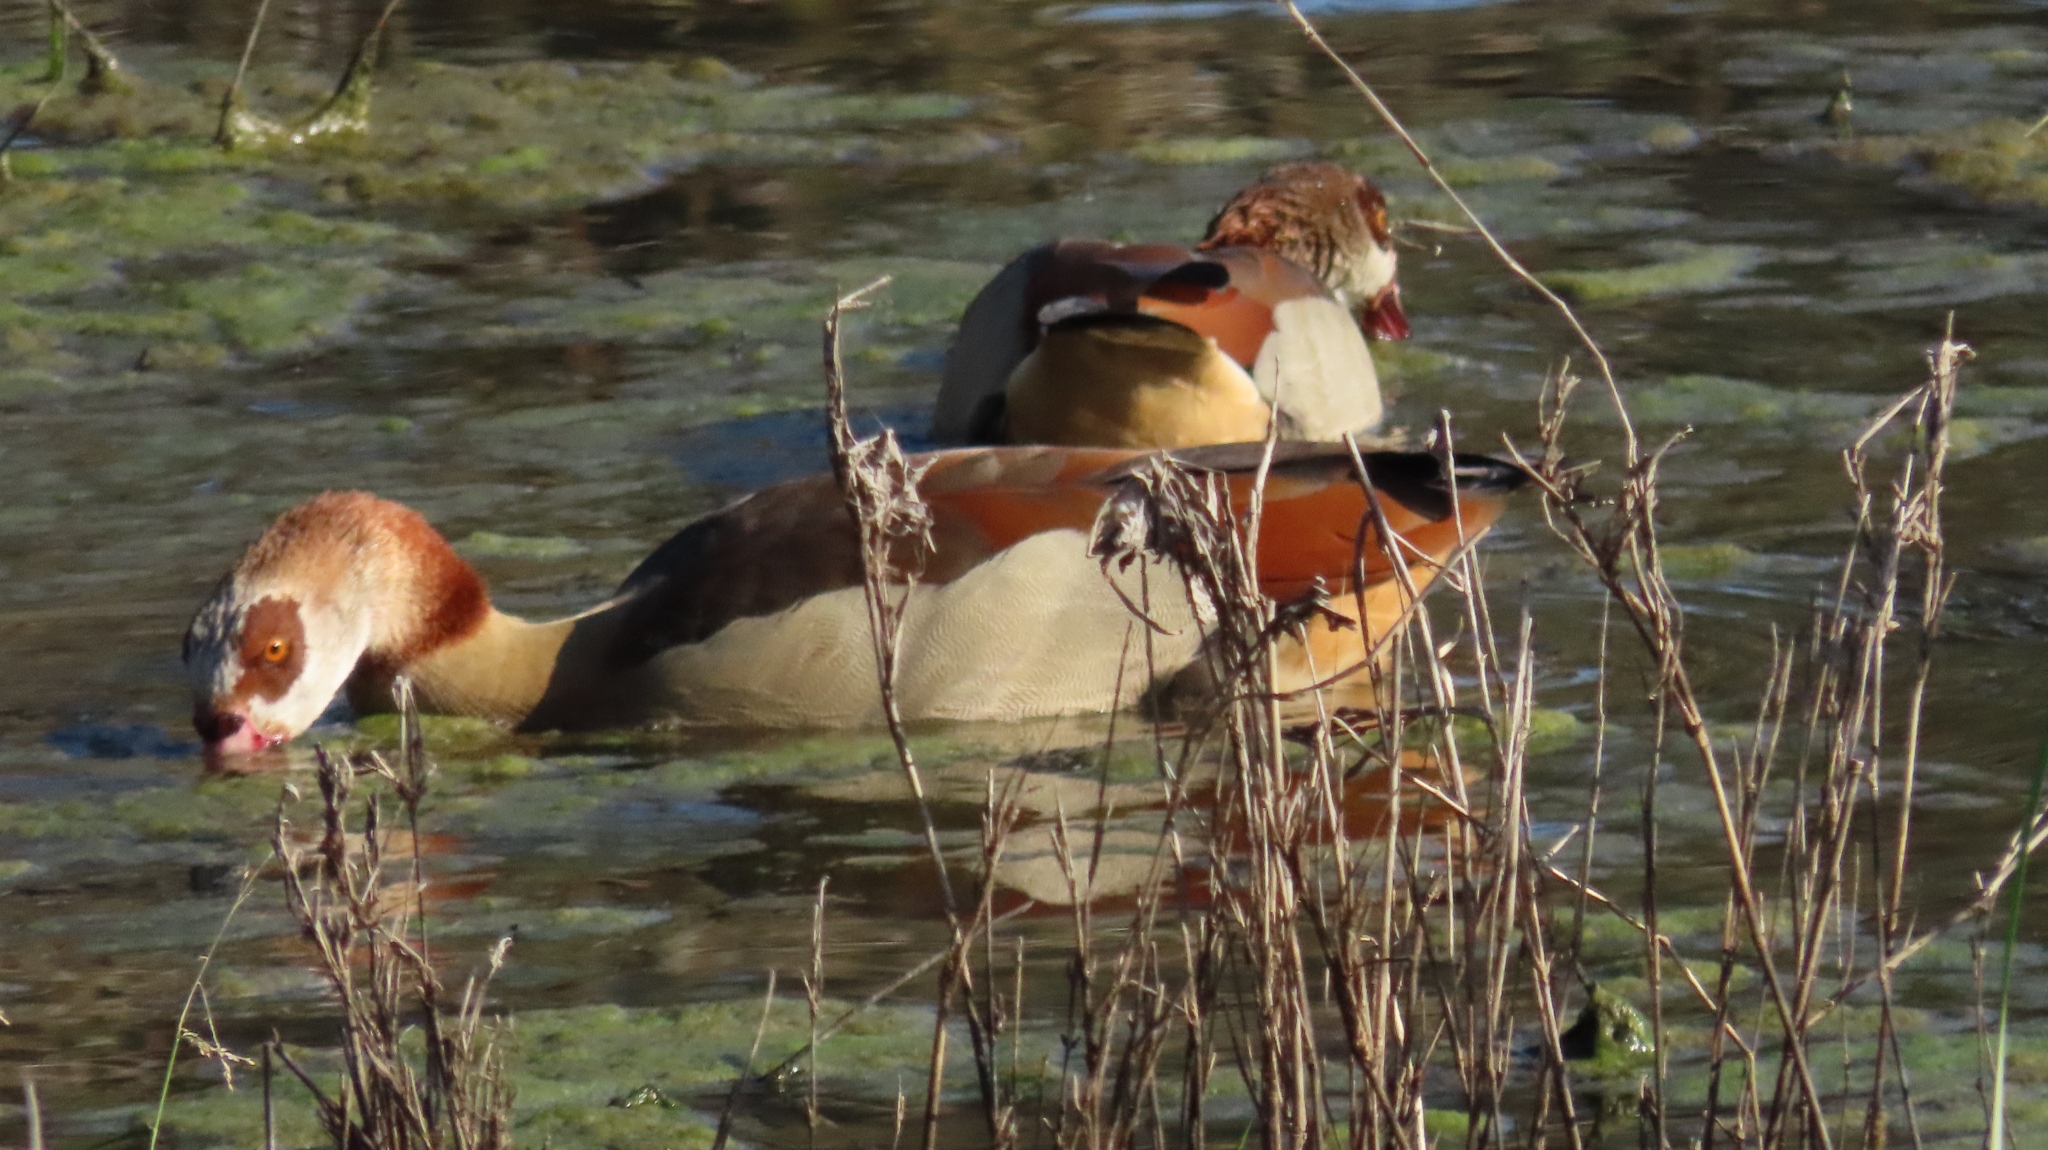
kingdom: Animalia
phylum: Chordata
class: Aves
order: Anseriformes
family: Anatidae
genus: Alopochen
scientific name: Alopochen aegyptiaca
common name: Egyptian goose
